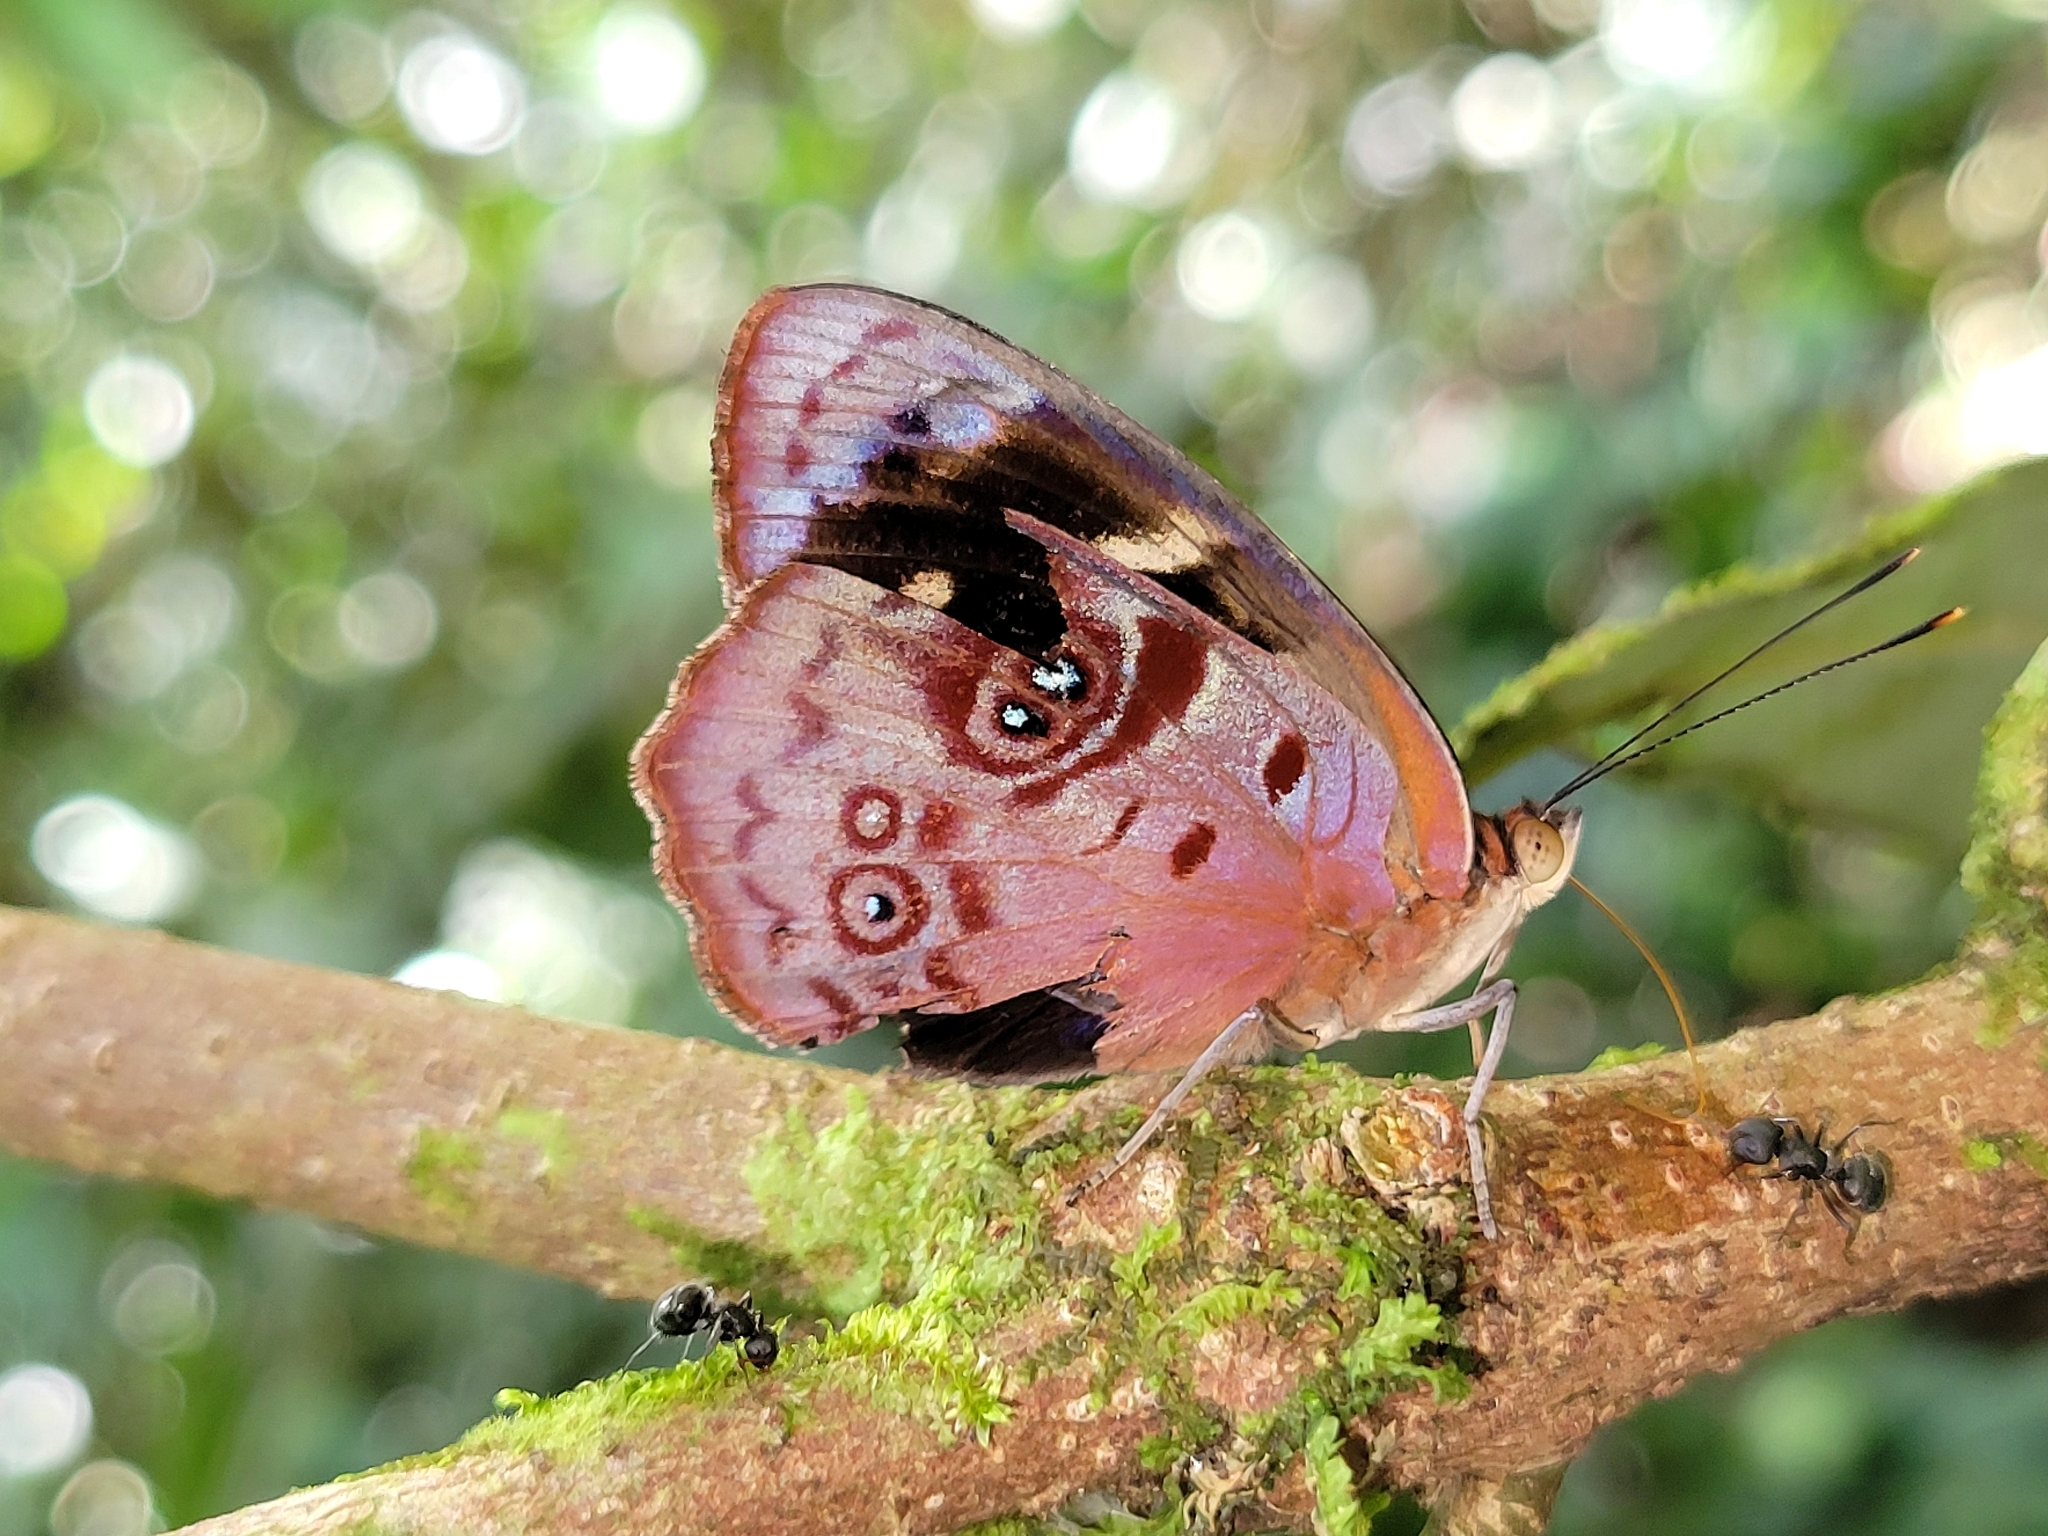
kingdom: Animalia
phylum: Arthropoda
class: Insecta
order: Lepidoptera
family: Nymphalidae
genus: Eunica
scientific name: Eunica orphise
